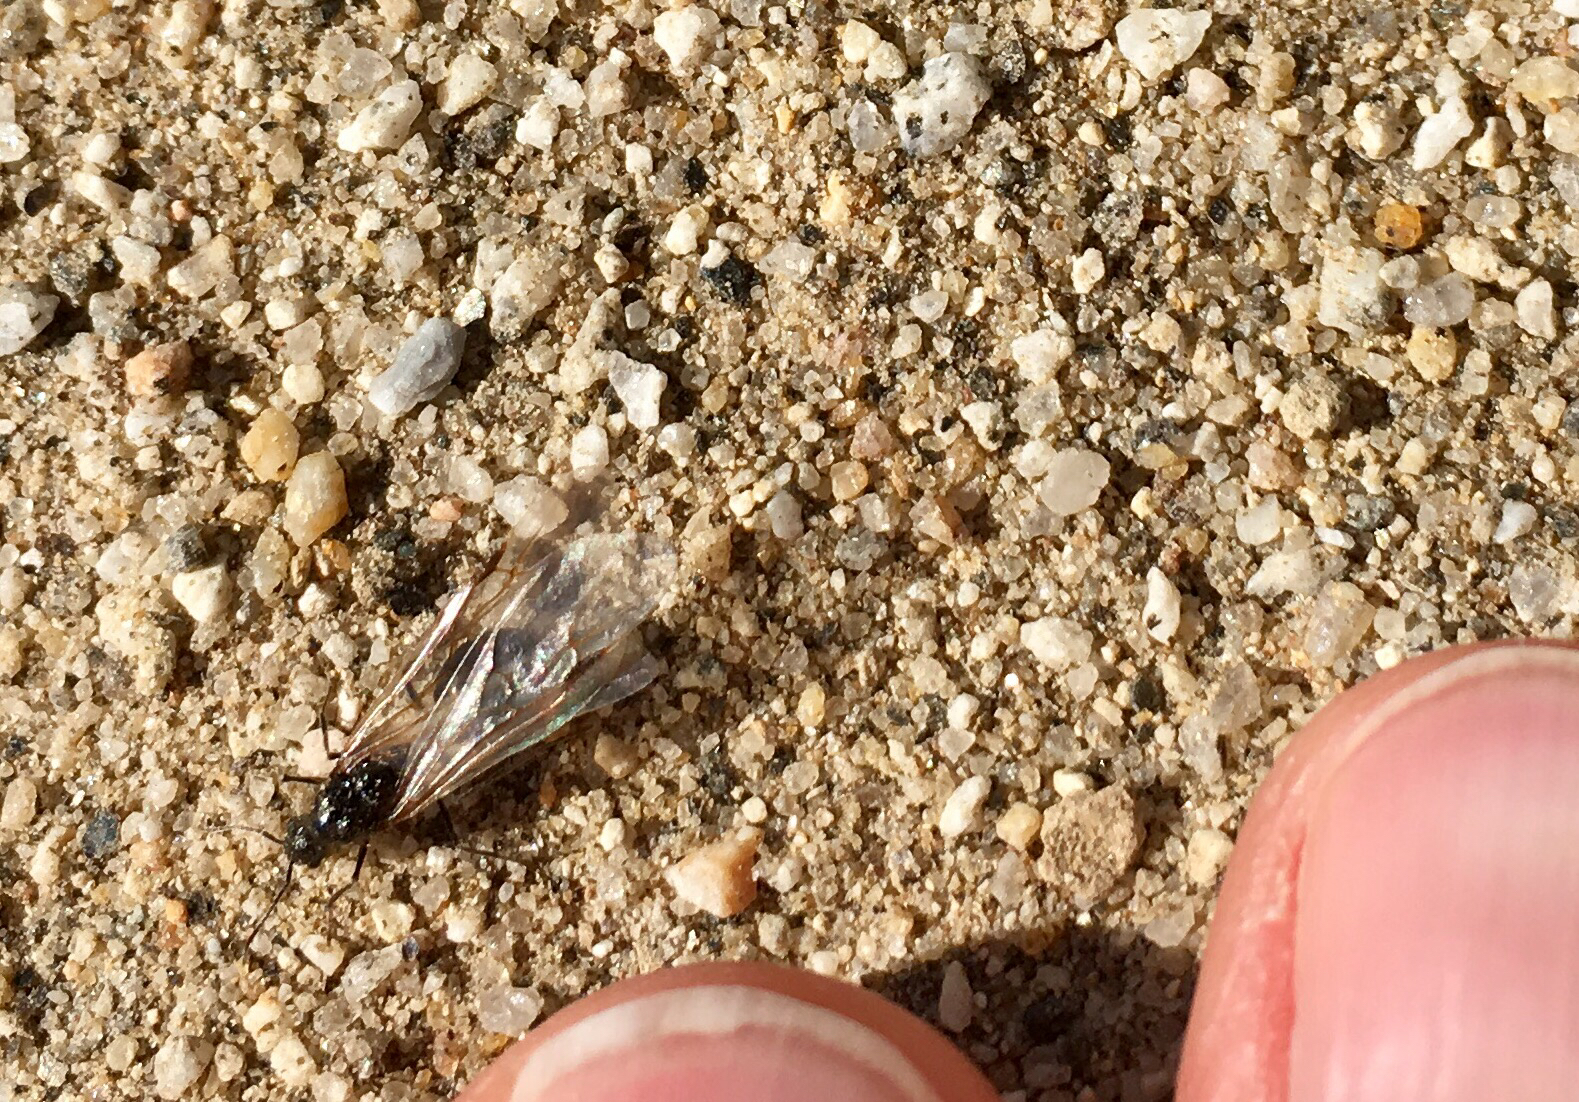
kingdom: Animalia
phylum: Arthropoda
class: Insecta
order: Hymenoptera
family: Formicidae
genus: Messor
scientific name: Messor pergandei
